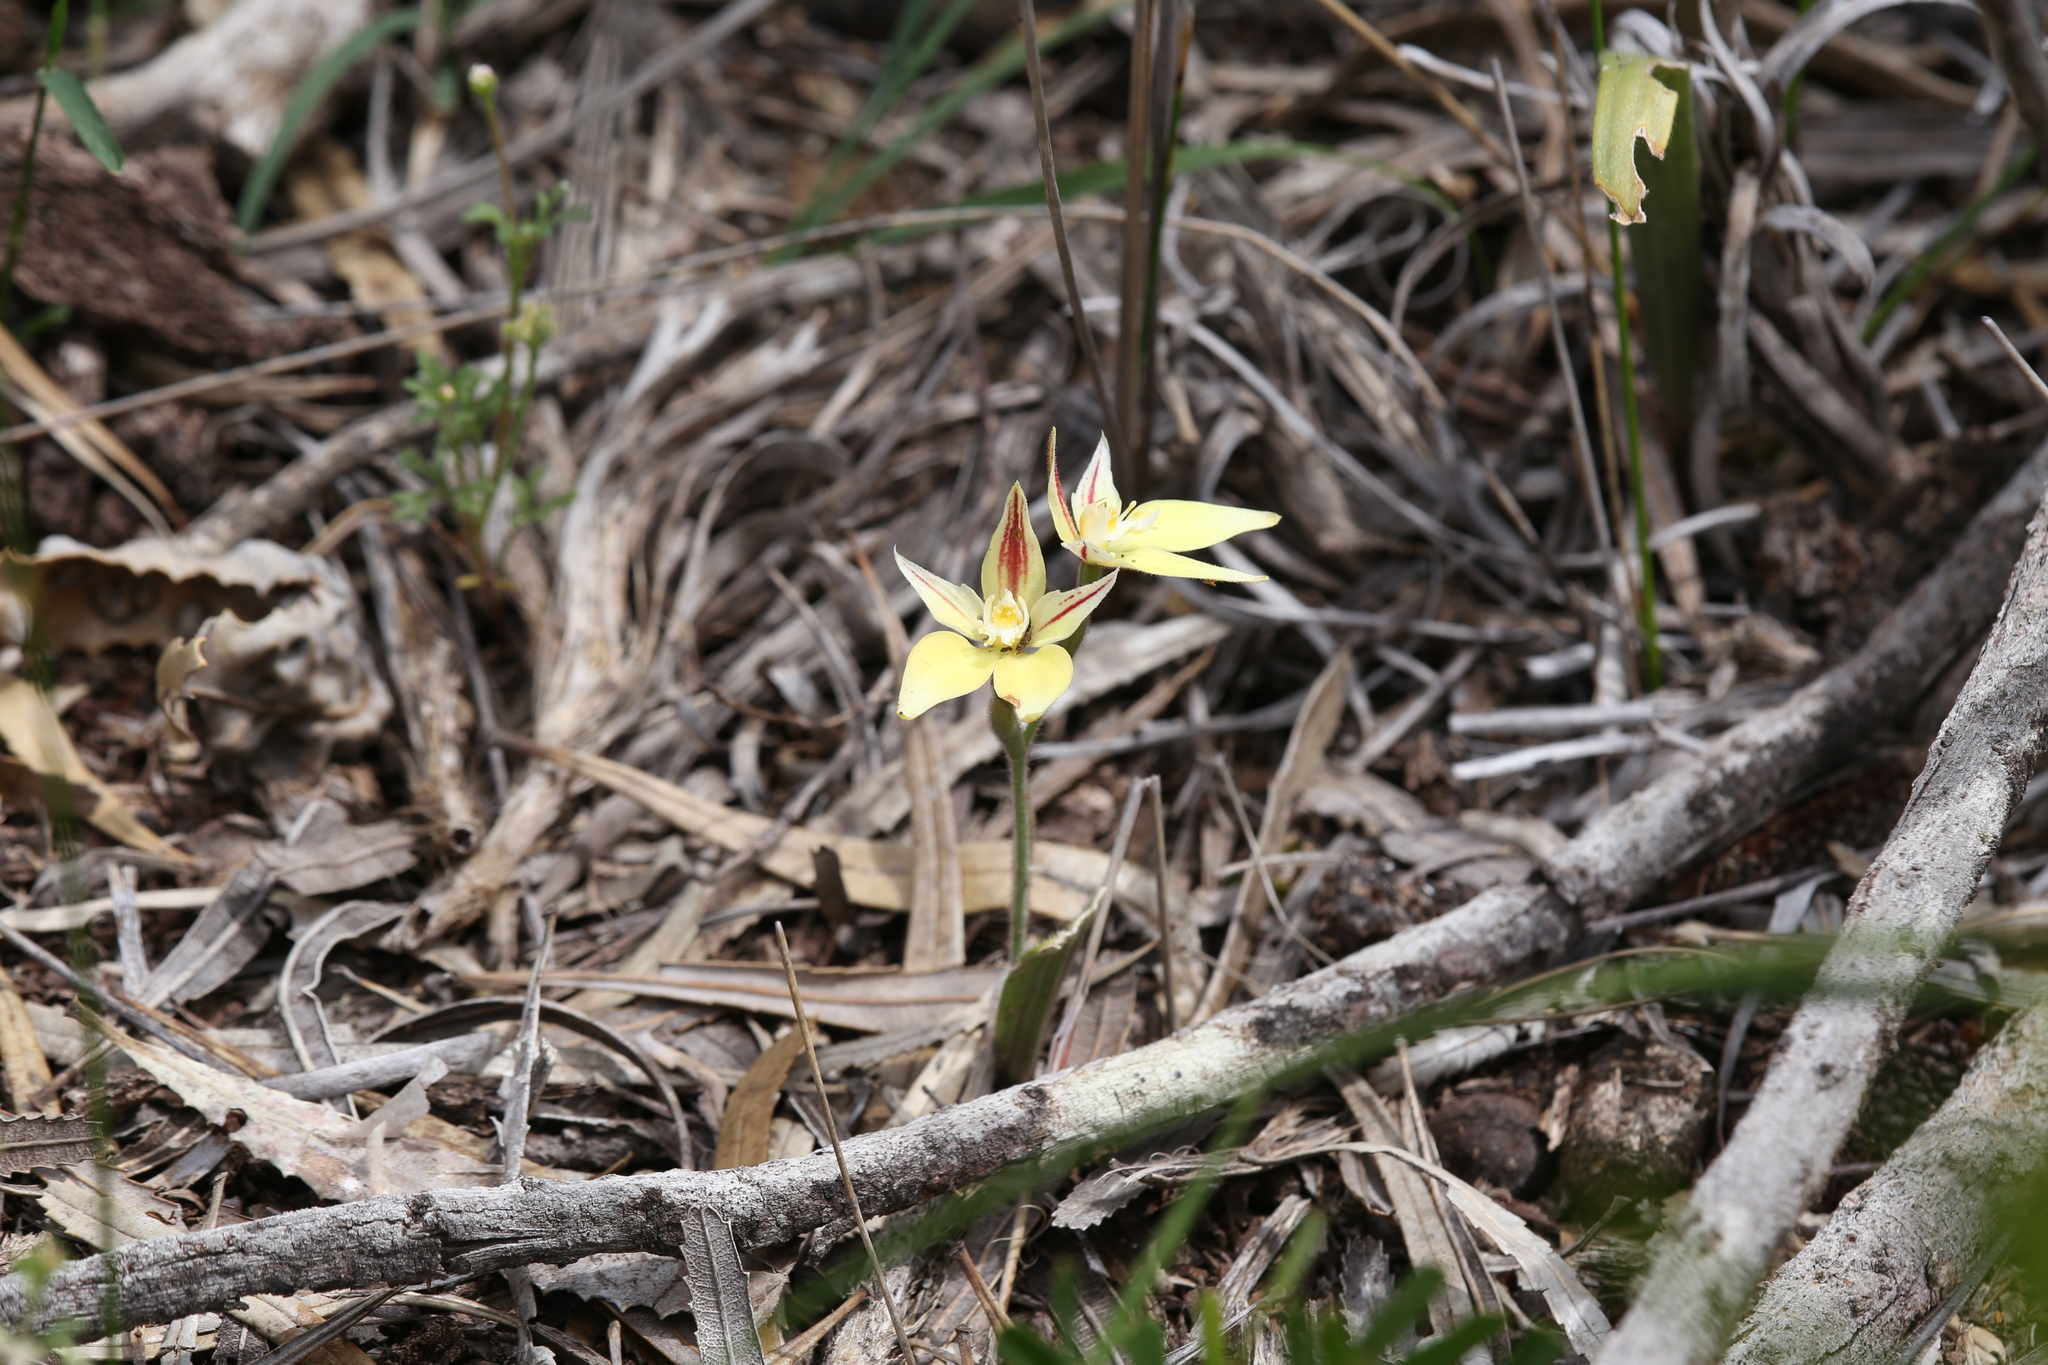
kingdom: Plantae
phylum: Tracheophyta
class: Liliopsida
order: Asparagales
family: Orchidaceae
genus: Caladenia
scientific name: Caladenia flava
